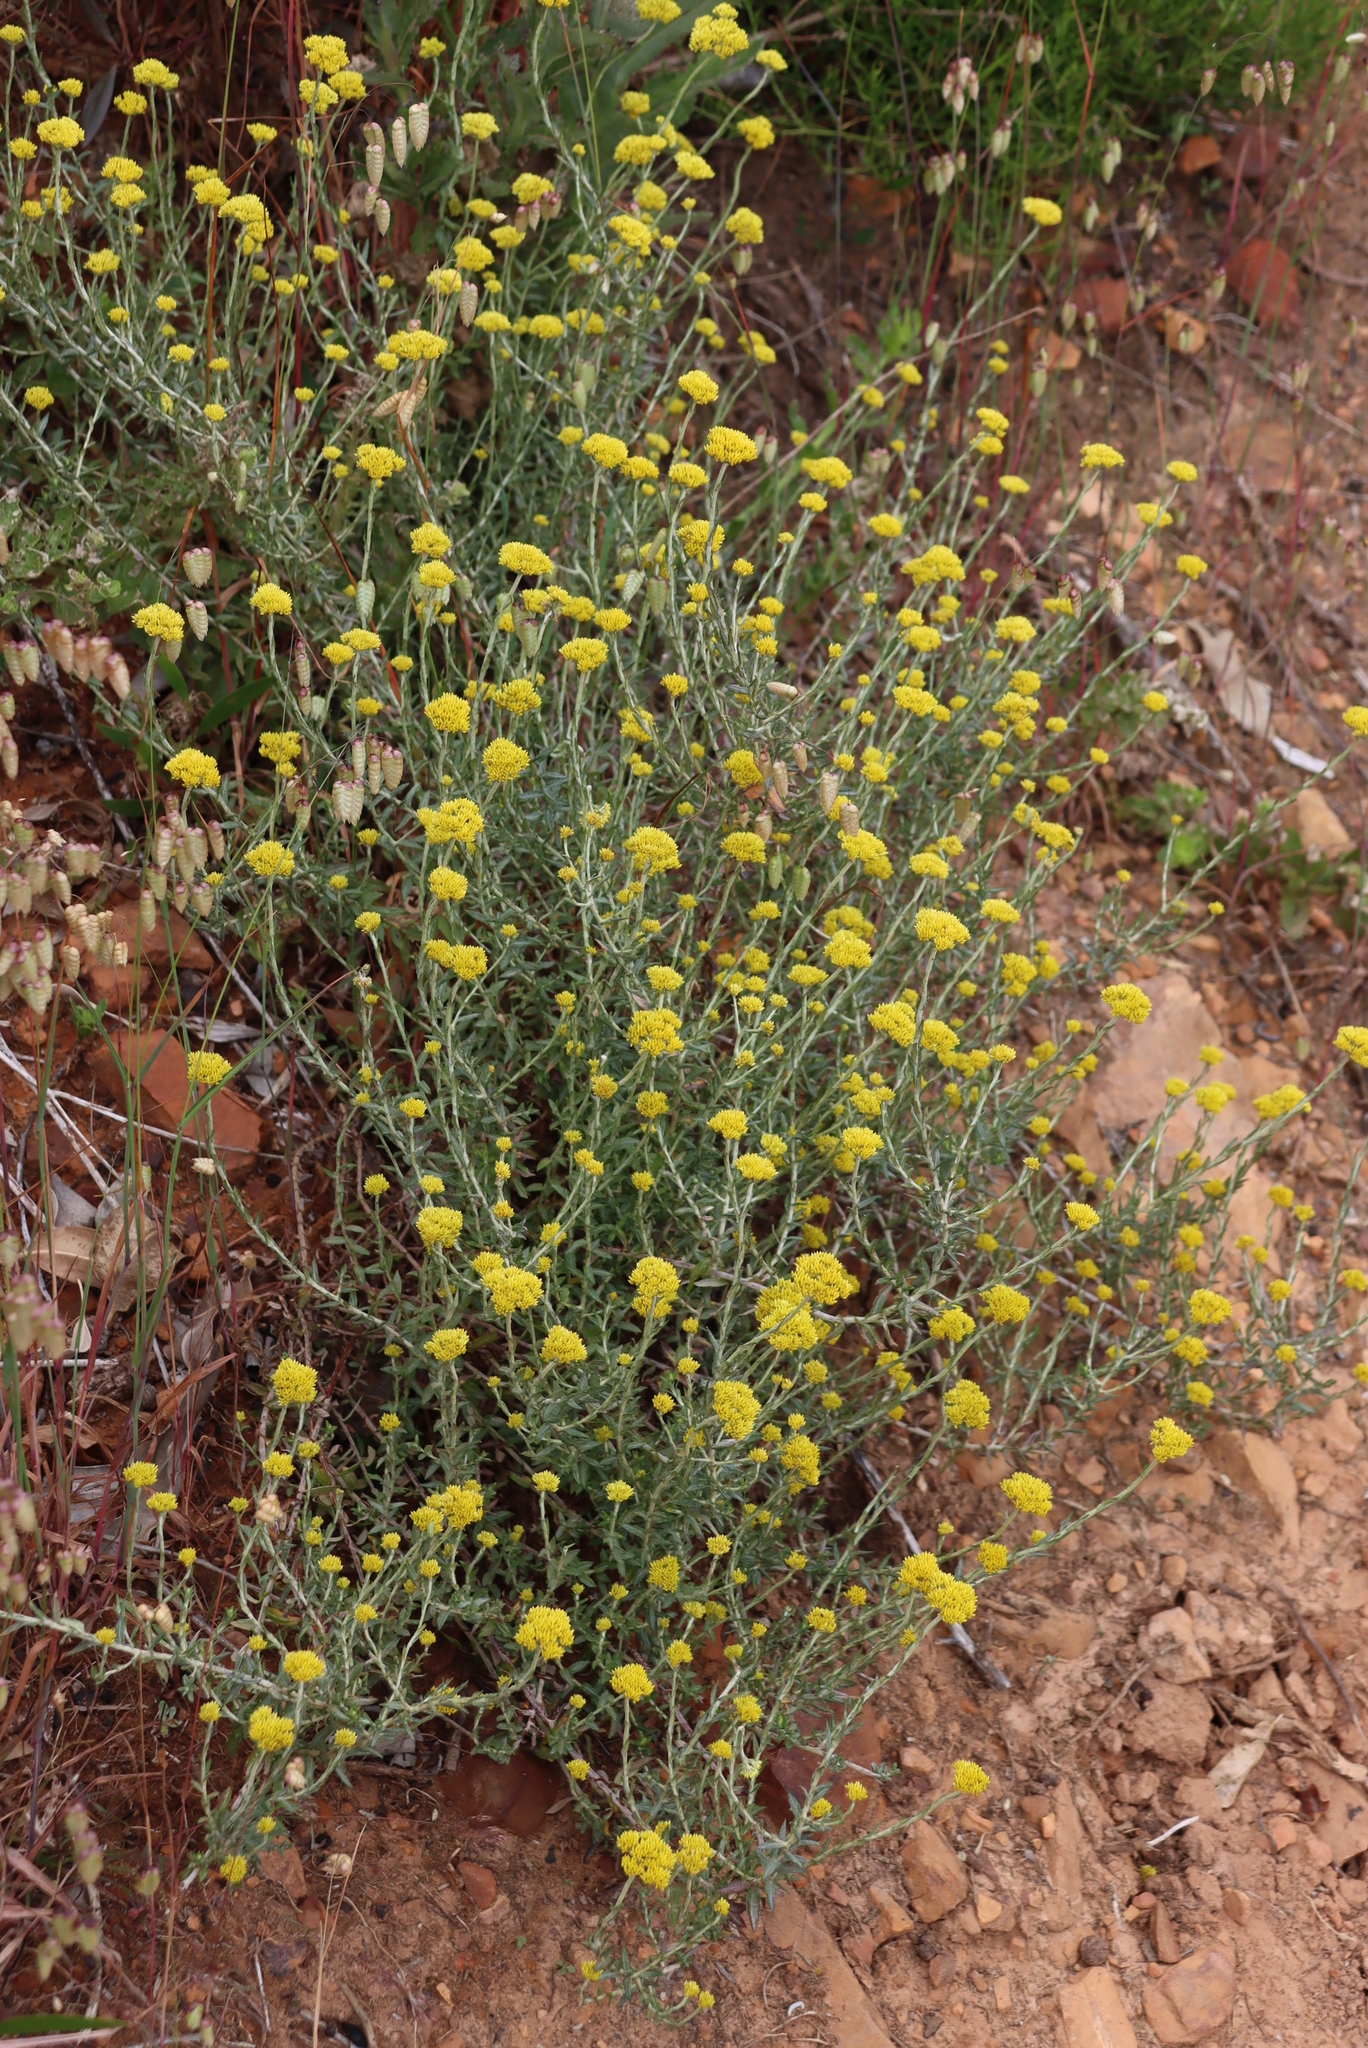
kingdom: Plantae
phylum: Tracheophyta
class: Magnoliopsida
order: Asterales
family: Asteraceae
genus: Helichrysum
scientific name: Helichrysum cymosum
